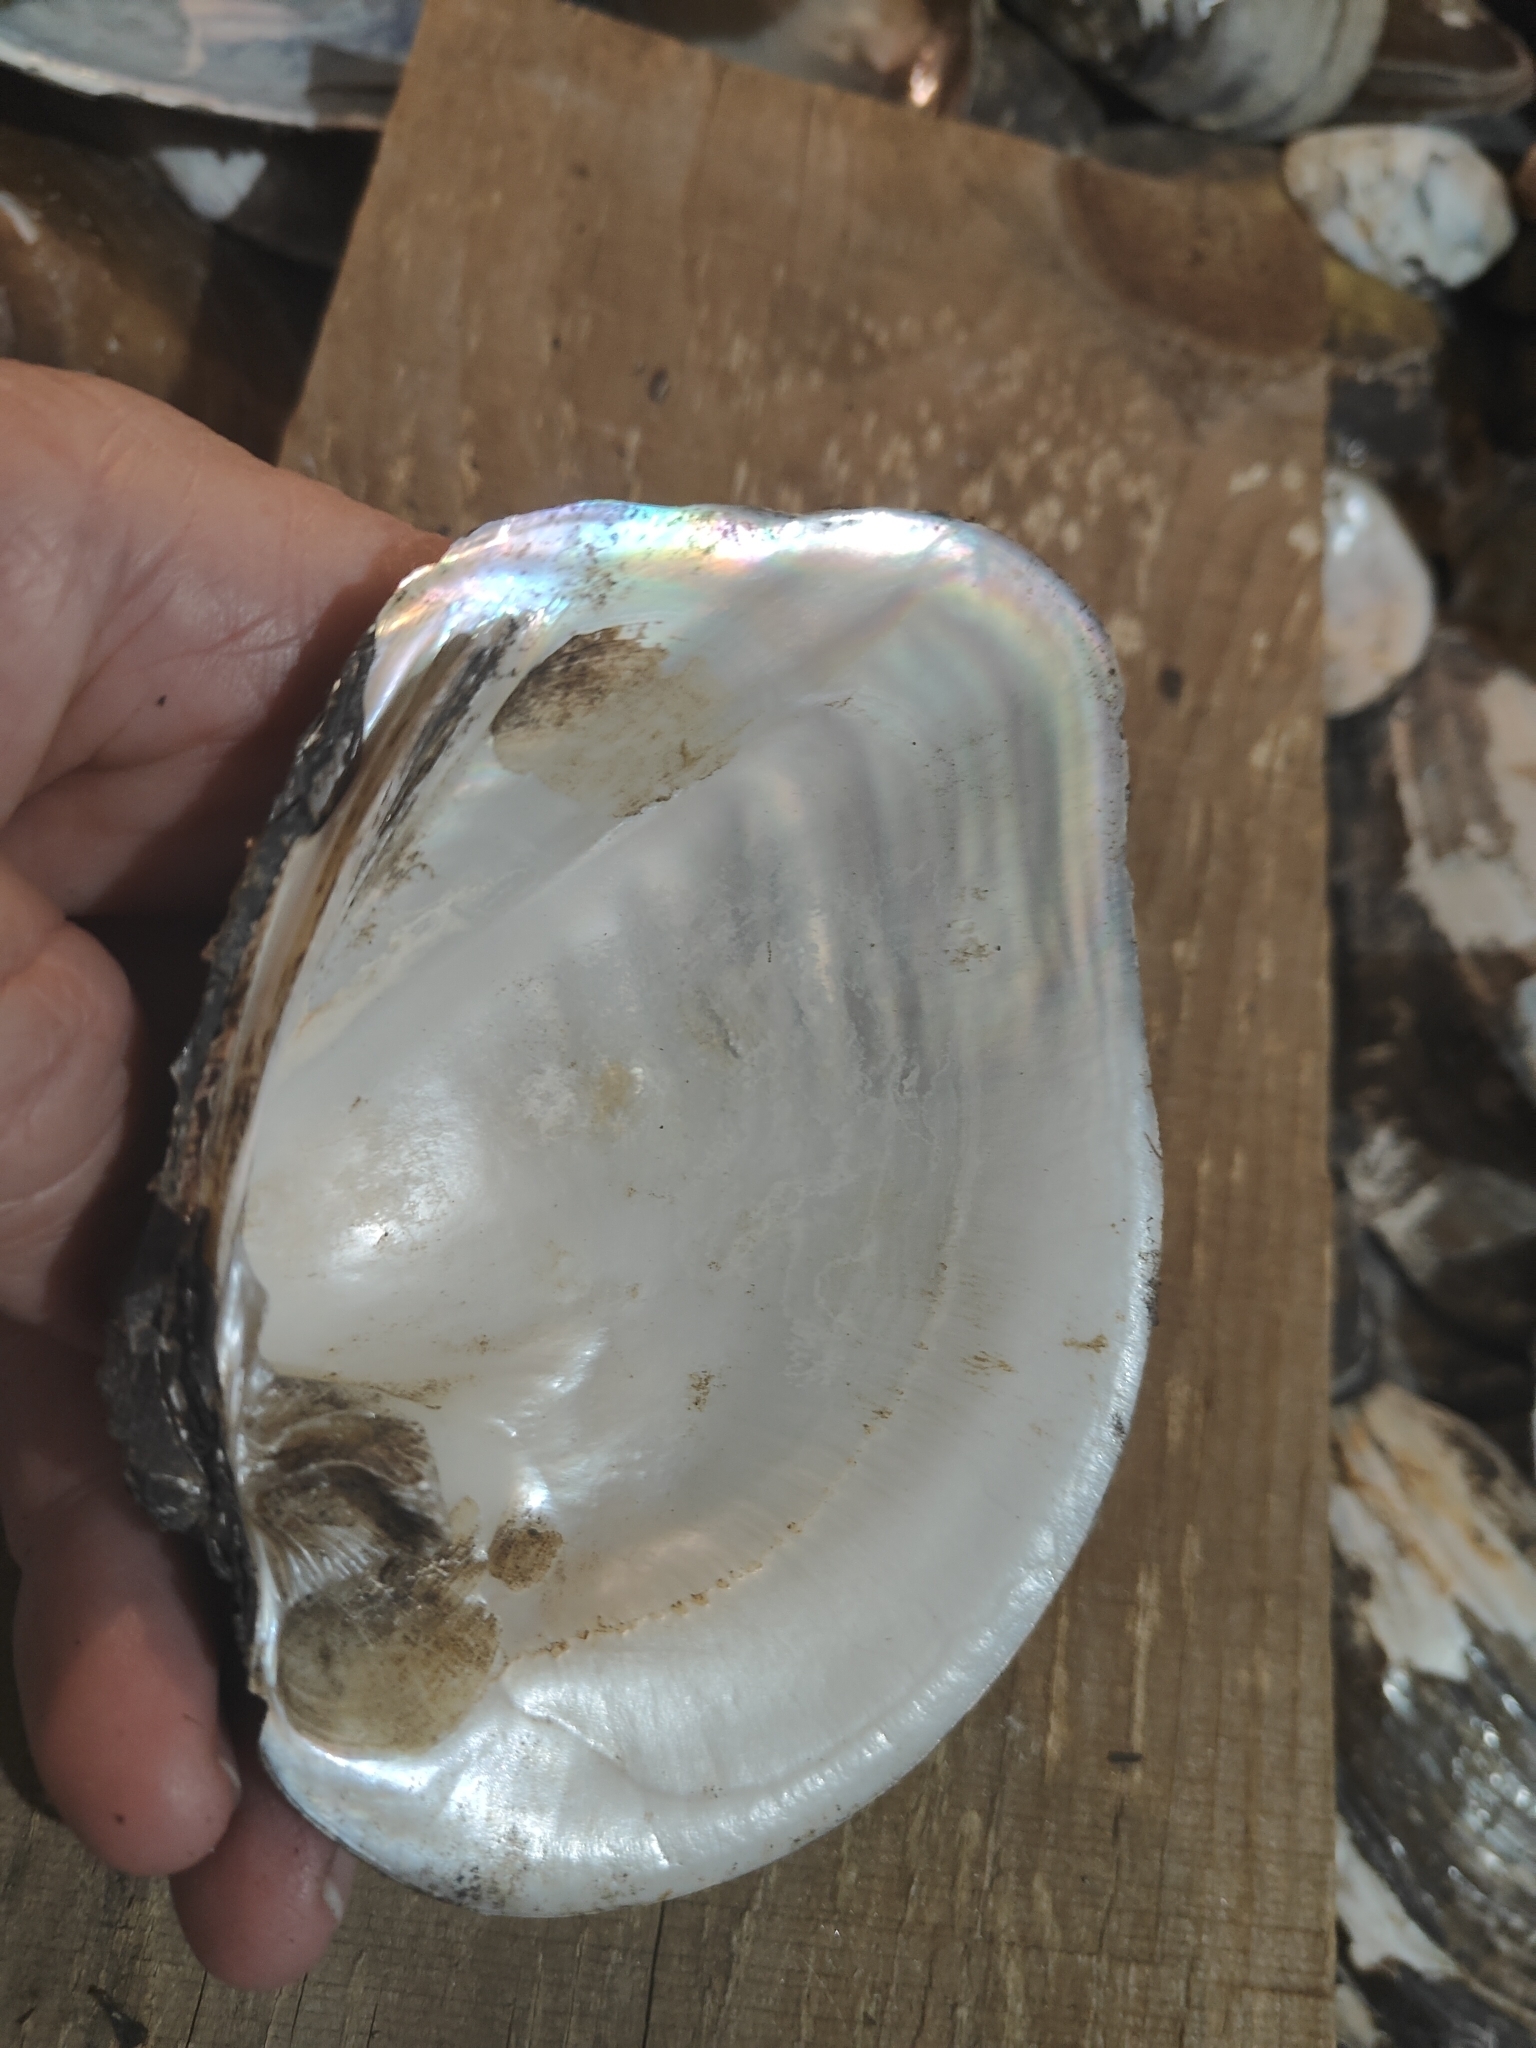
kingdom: Animalia
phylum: Mollusca
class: Bivalvia
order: Unionida
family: Unionidae
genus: Quadrula
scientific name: Quadrula quadrula
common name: Mapleleaf
